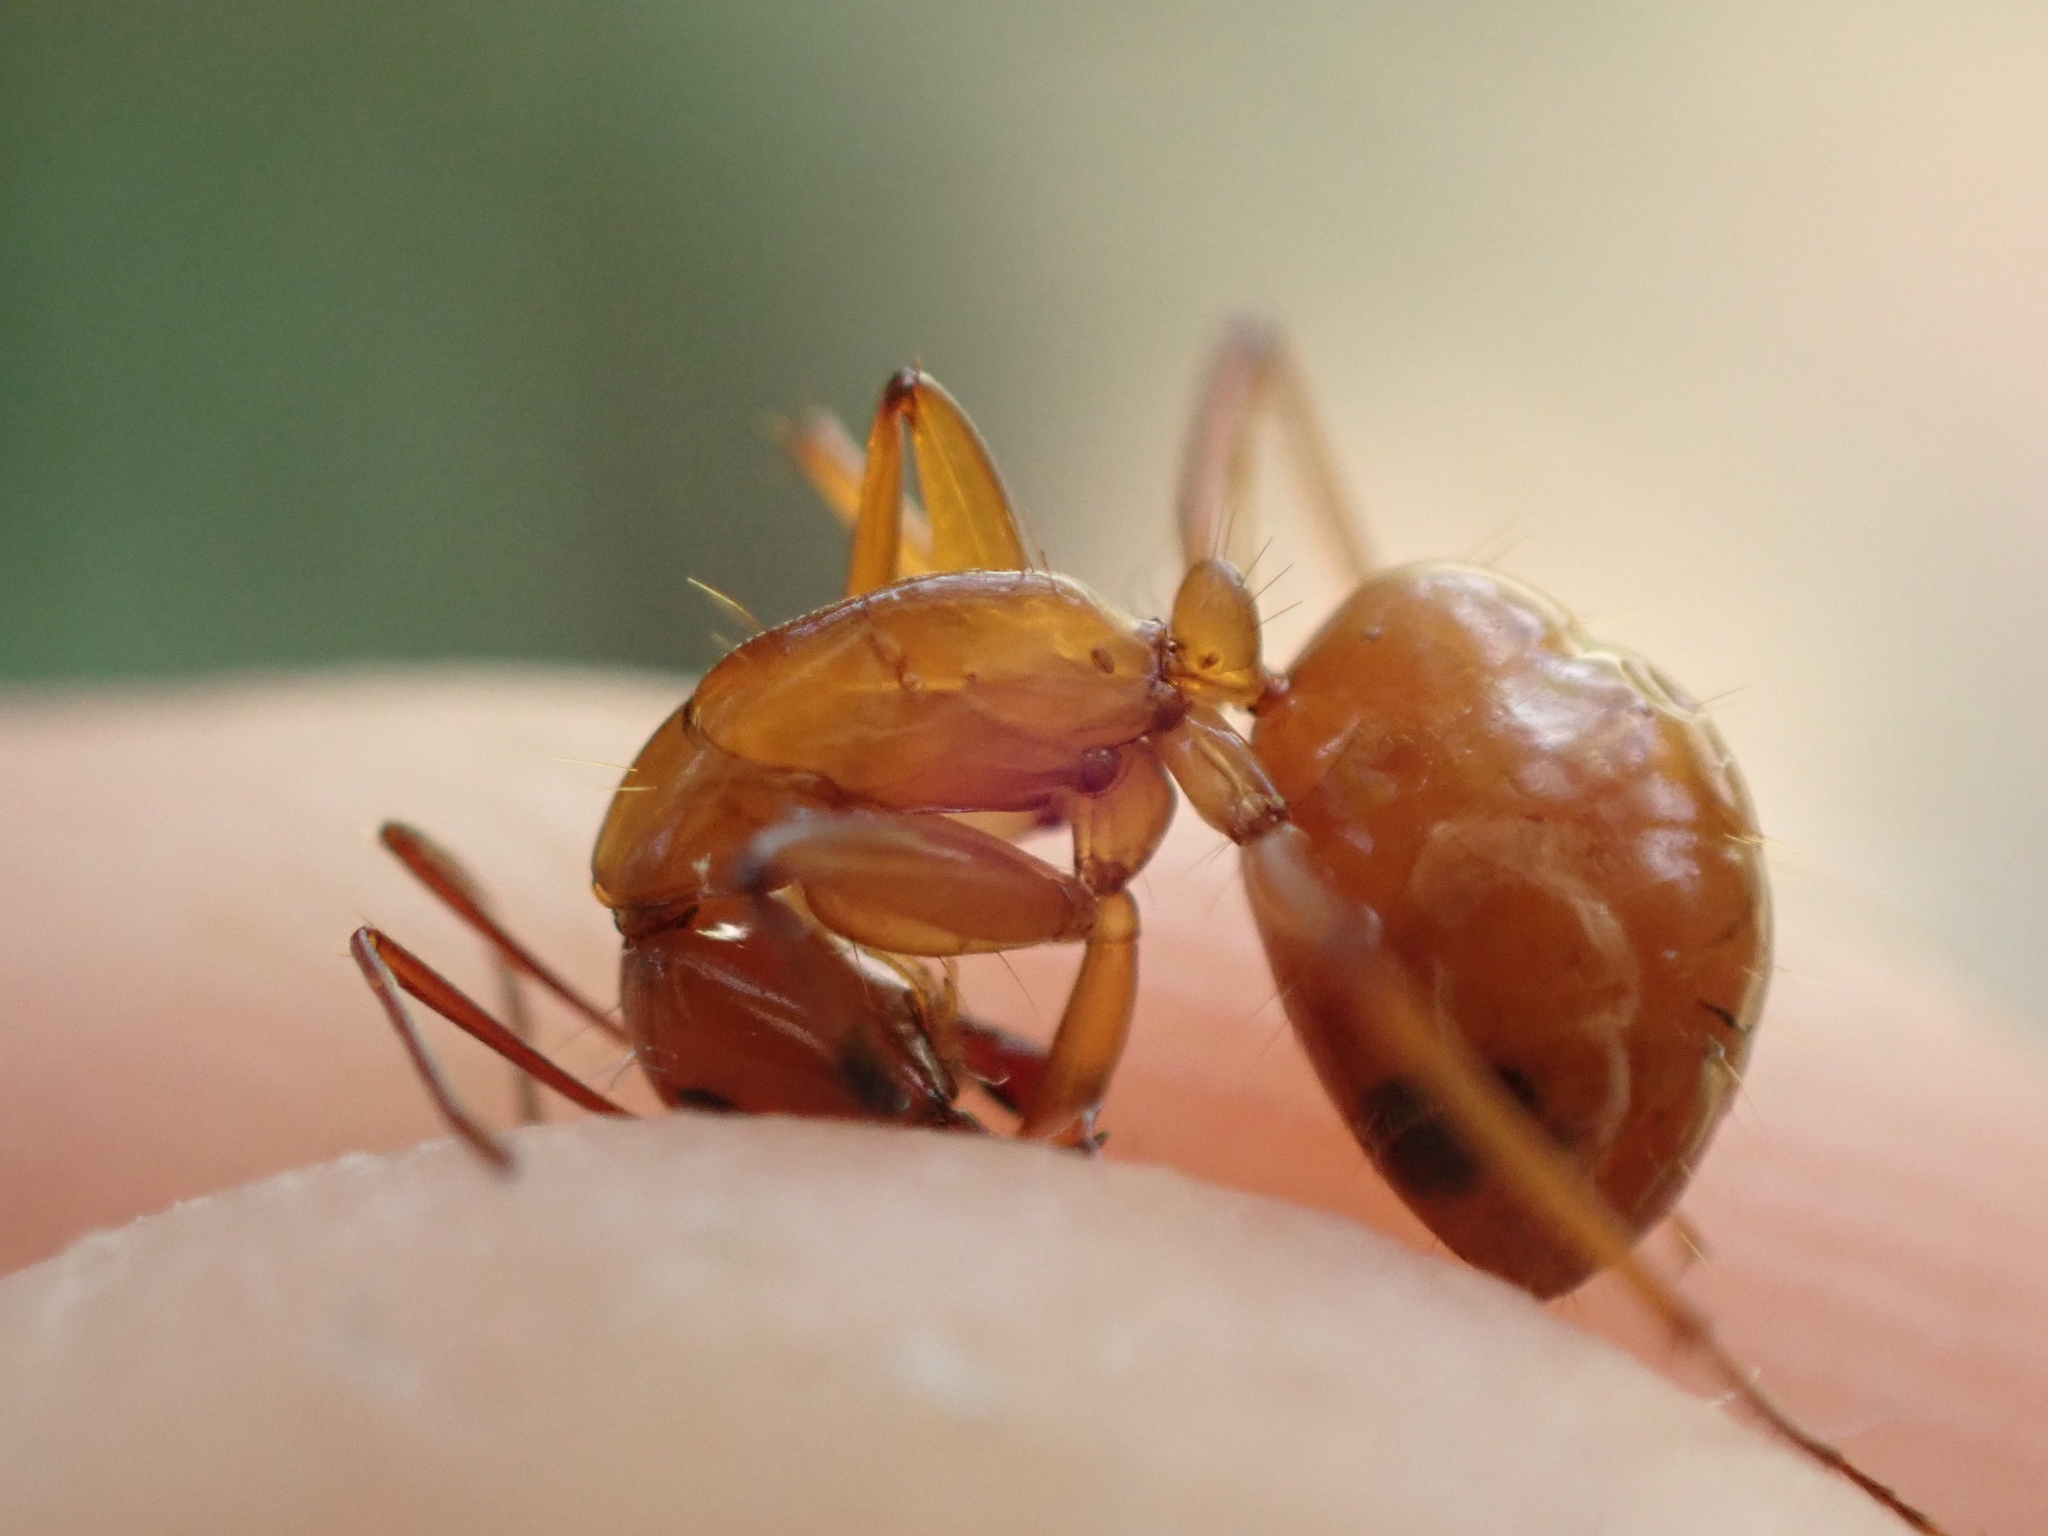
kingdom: Animalia
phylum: Arthropoda
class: Insecta
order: Hymenoptera
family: Formicidae
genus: Camponotus
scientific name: Camponotus castaneus
